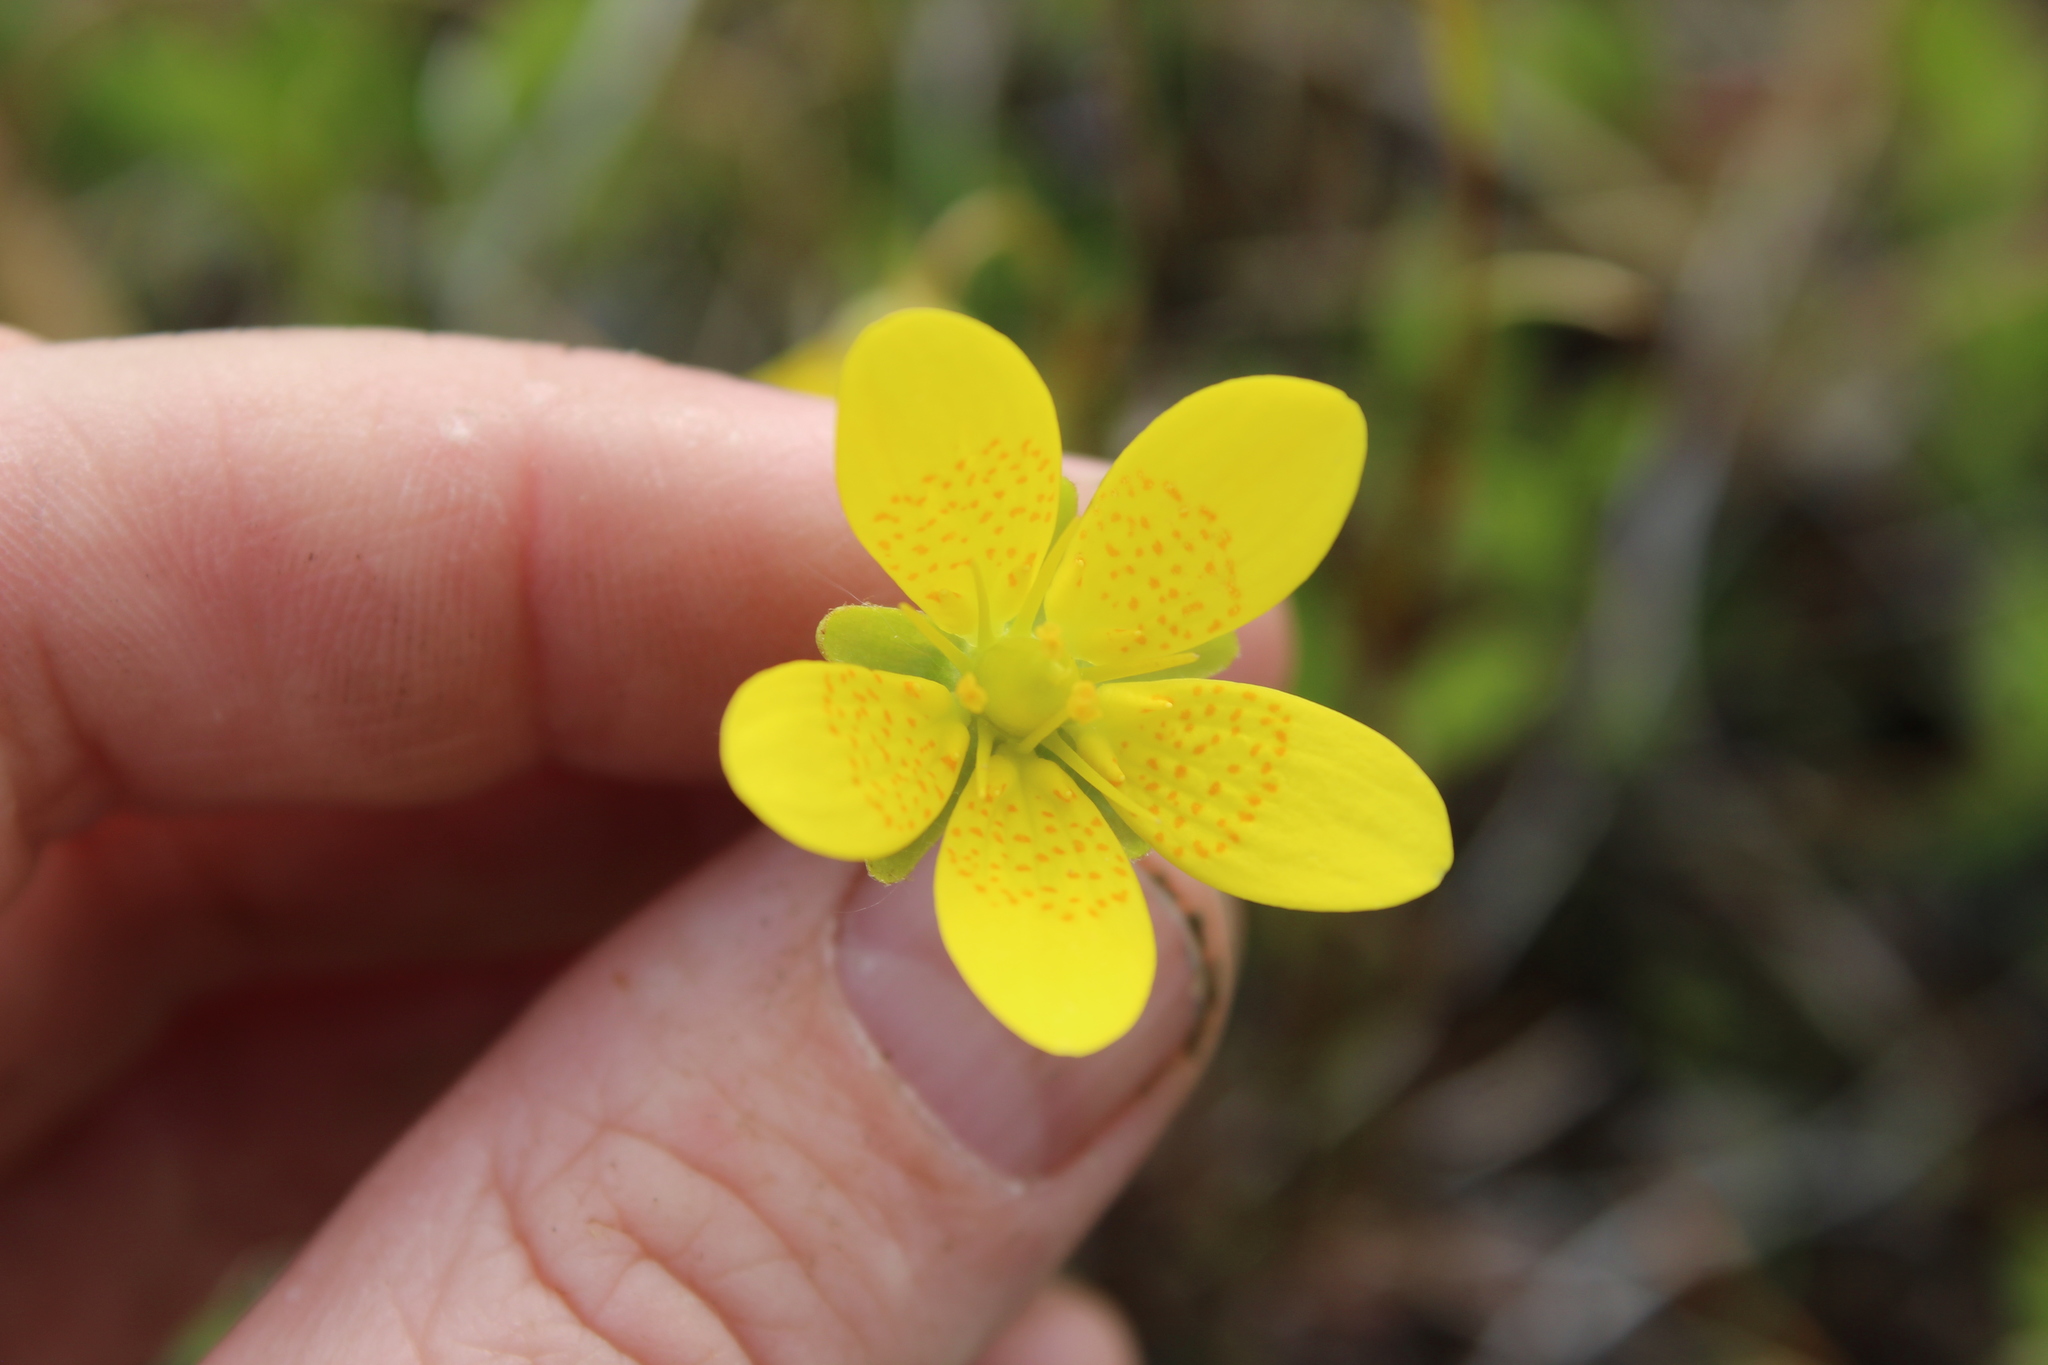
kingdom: Plantae
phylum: Tracheophyta
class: Magnoliopsida
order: Saxifragales
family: Saxifragaceae
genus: Saxifraga
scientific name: Saxifraga hirculus
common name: Yellow marsh saxifrage
